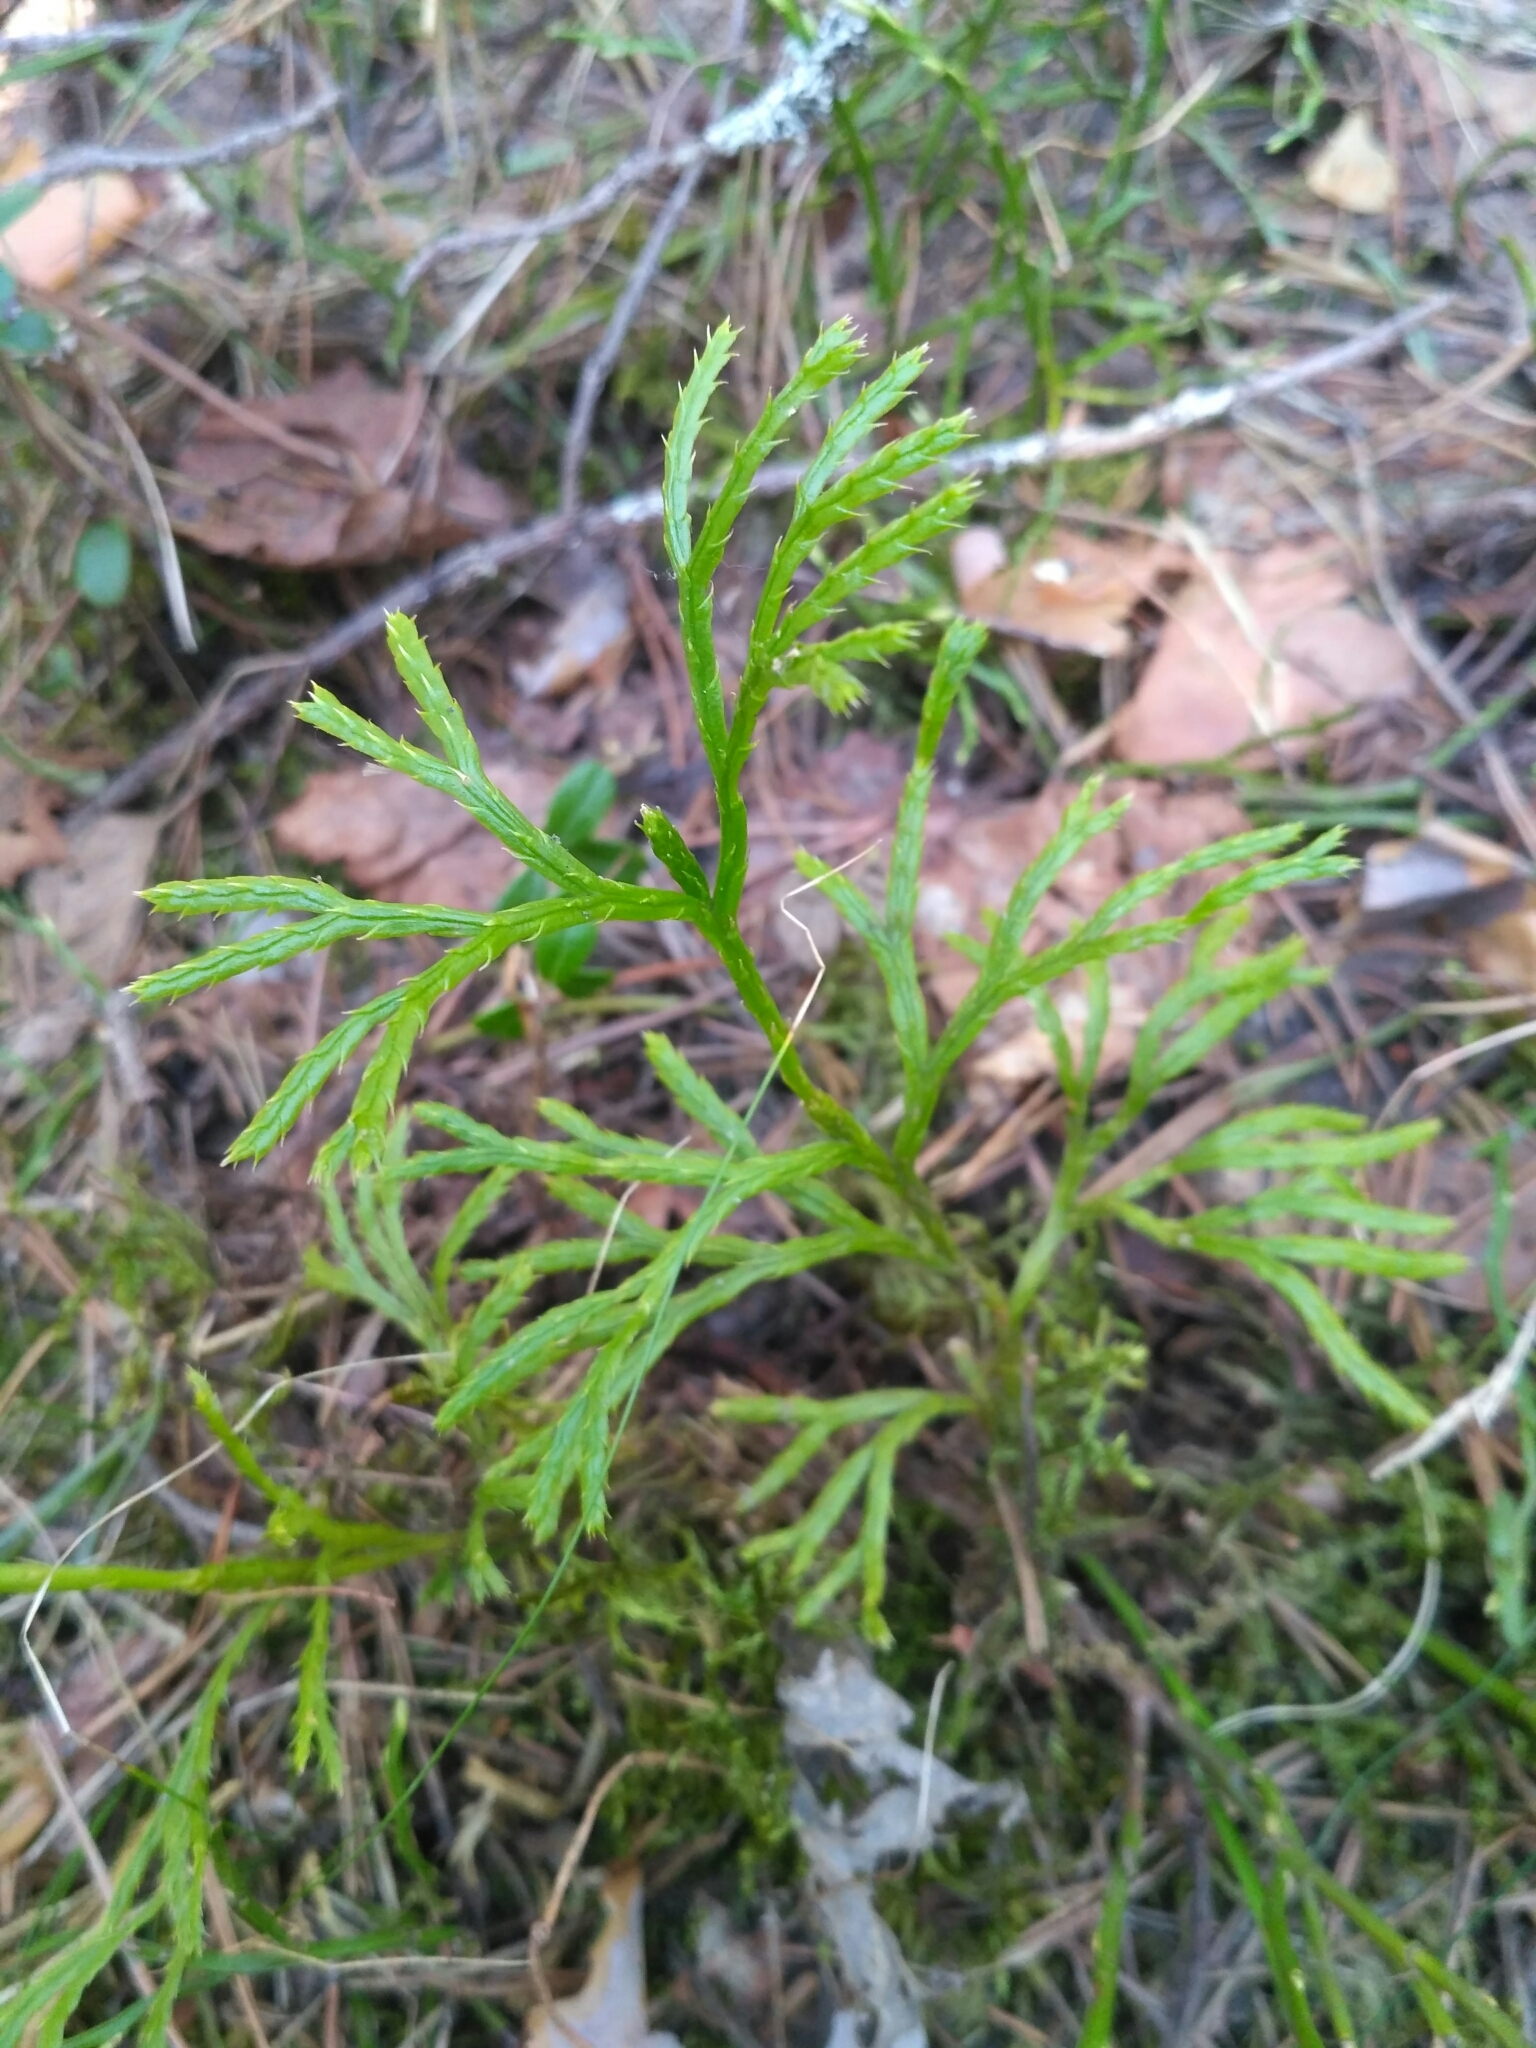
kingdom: Plantae
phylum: Tracheophyta
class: Lycopodiopsida
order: Lycopodiales
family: Lycopodiaceae
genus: Diphasiastrum
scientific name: Diphasiastrum complanatum
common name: Northern running-pine
